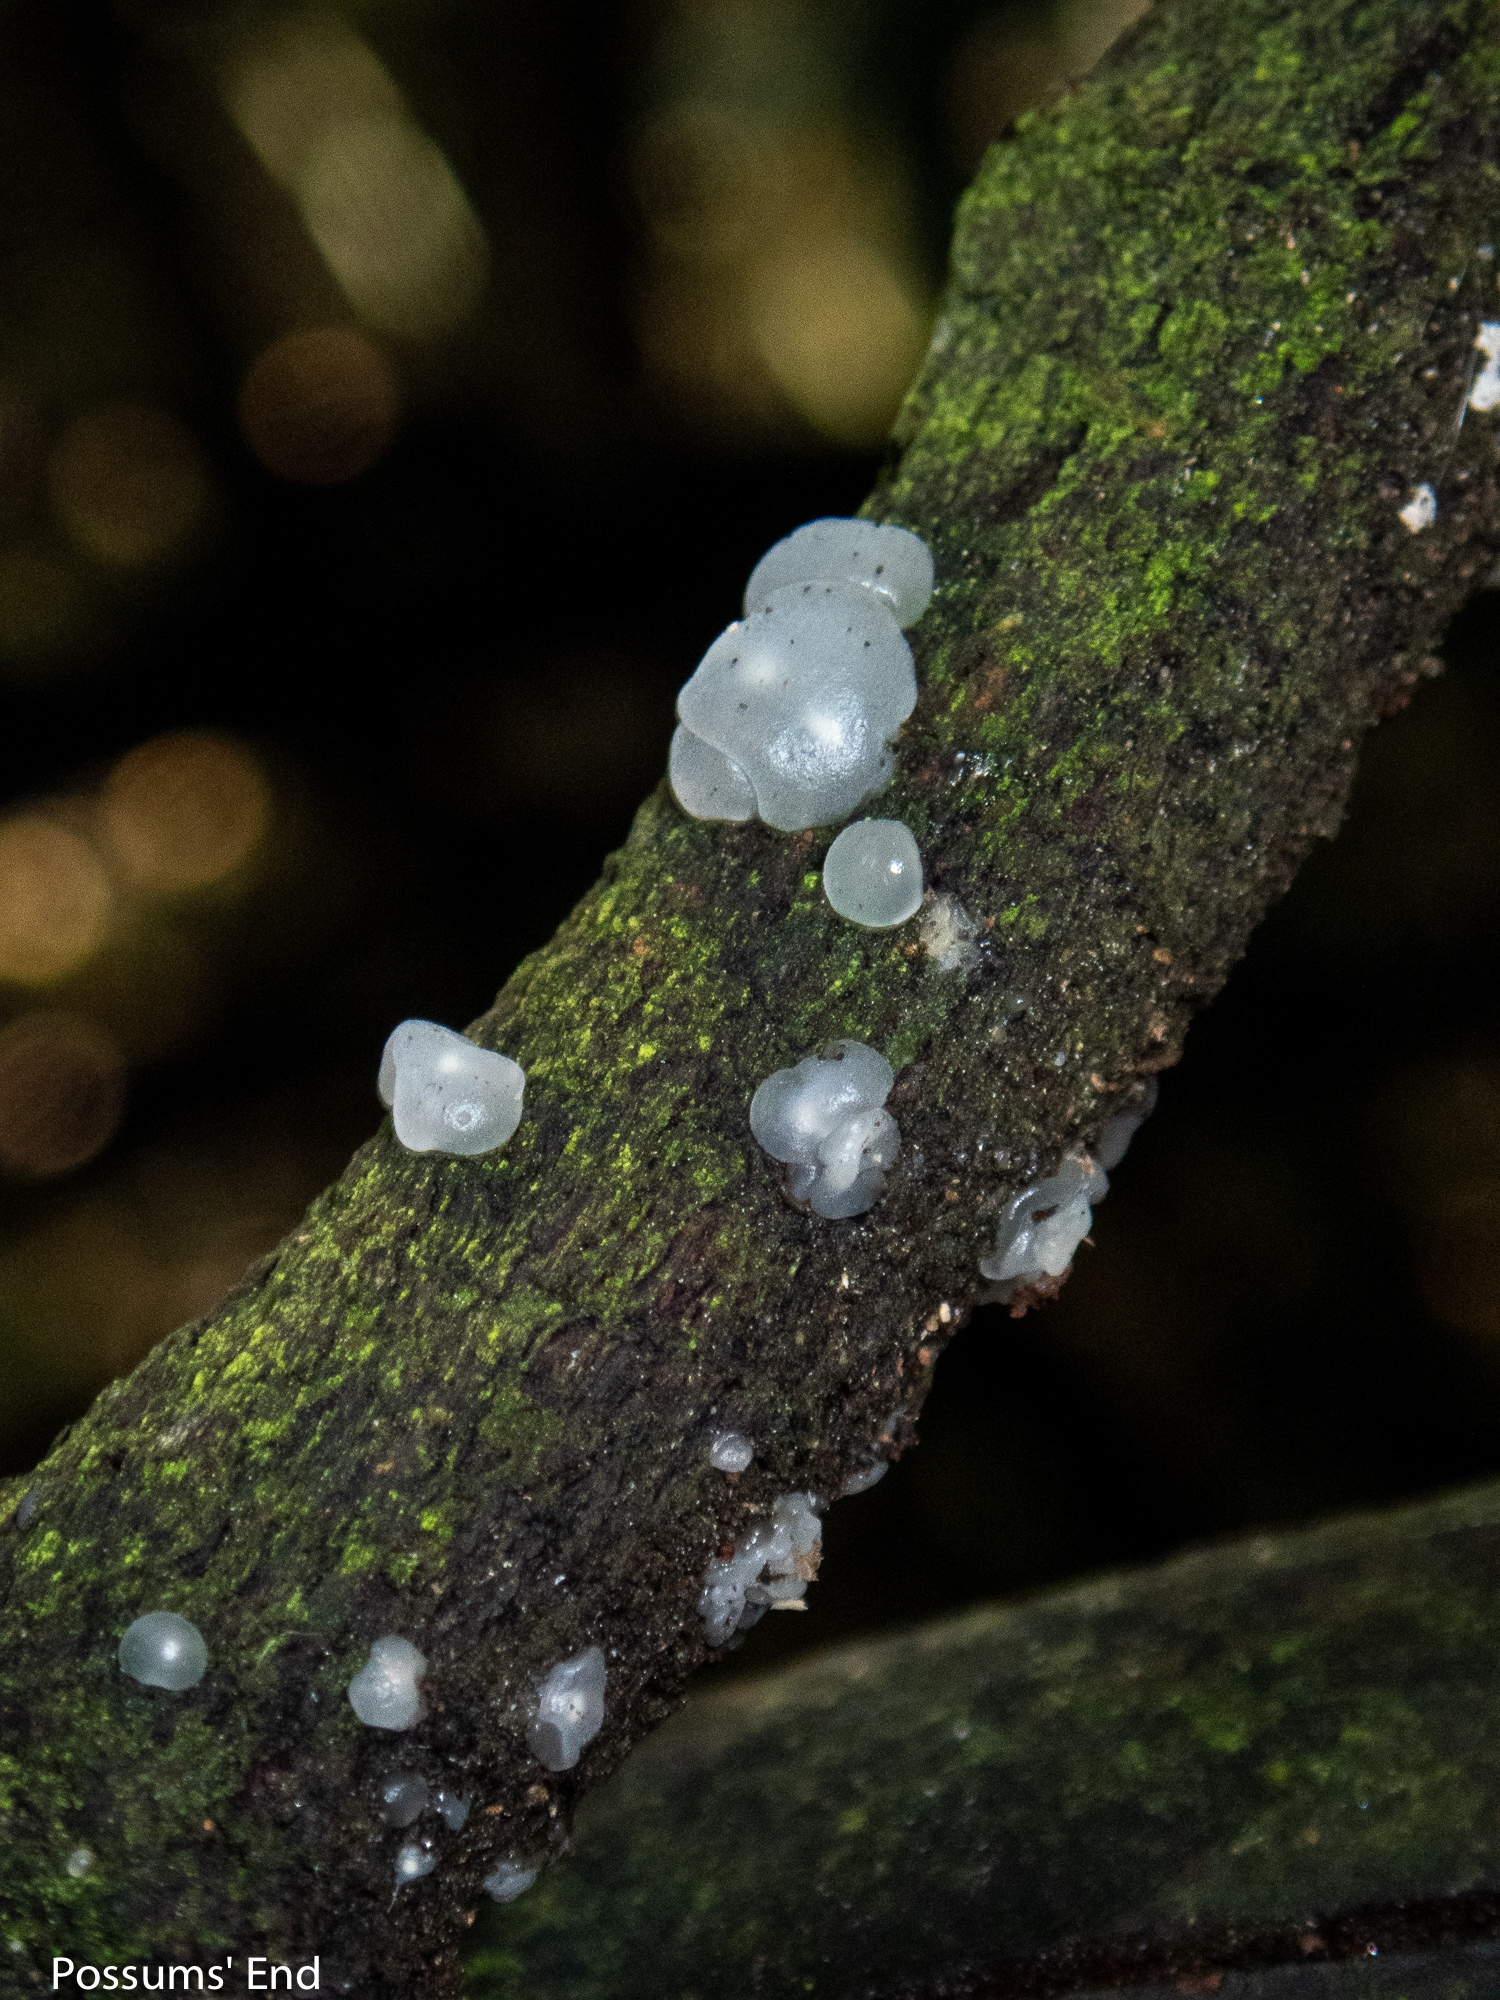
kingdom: Fungi
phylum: Basidiomycota
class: Agaricomycetes
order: Auriculariales
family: Hyaloriaceae
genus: Myxarium
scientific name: Myxarium nucleatum
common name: Crystal brain fungus
